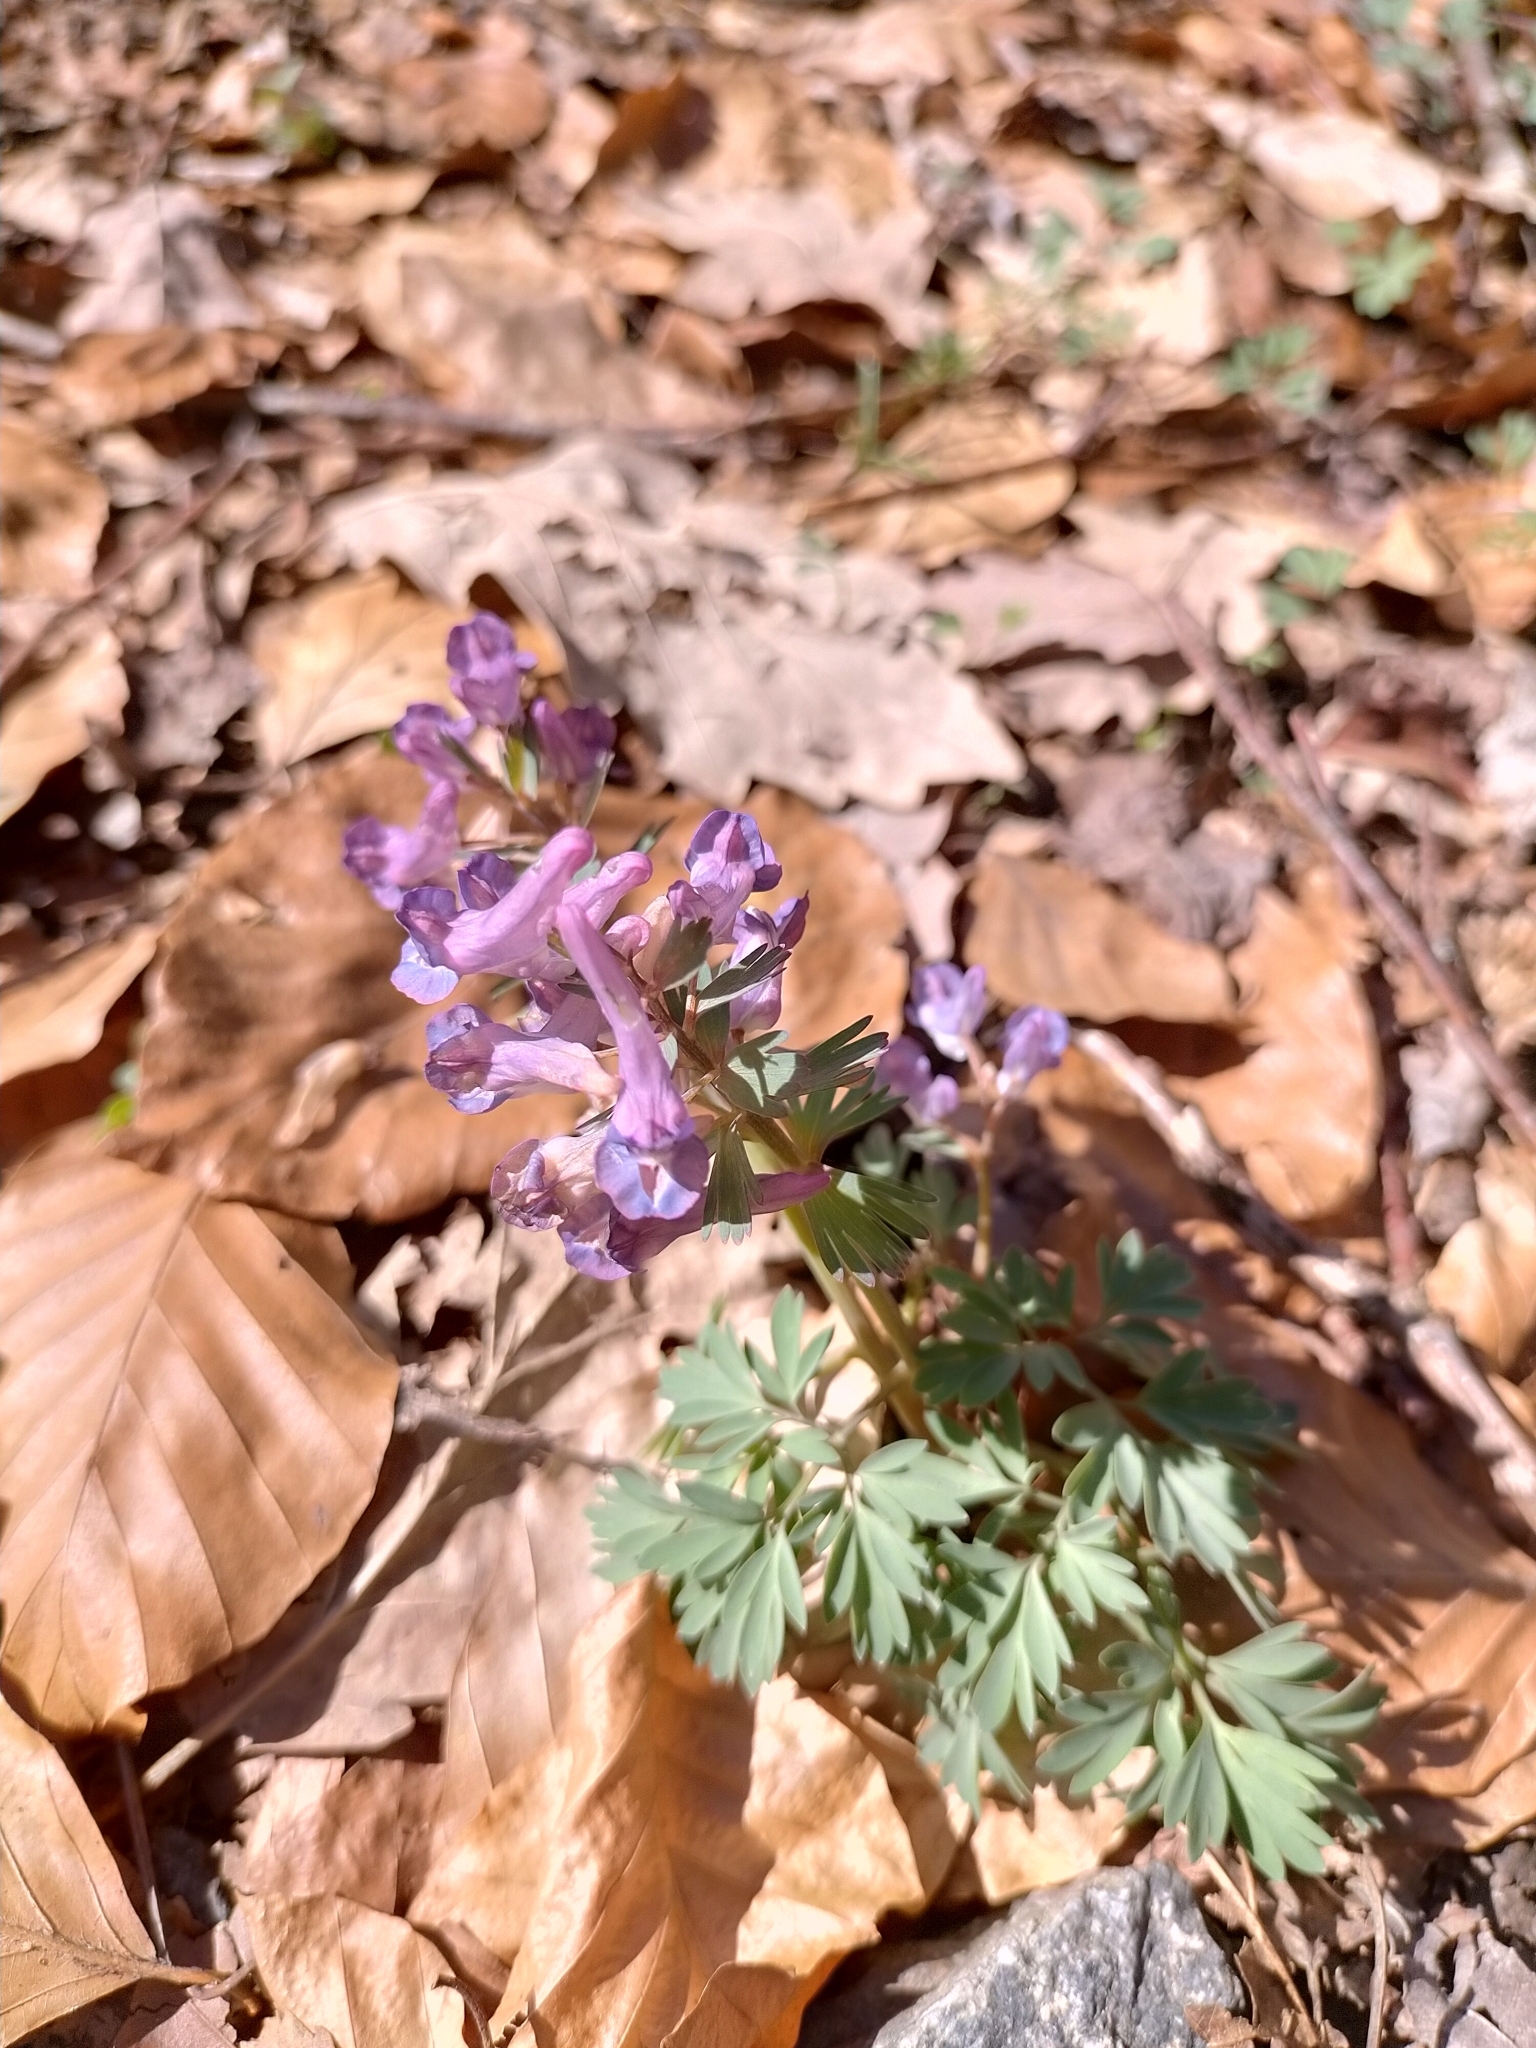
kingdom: Plantae
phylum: Tracheophyta
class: Magnoliopsida
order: Ranunculales
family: Papaveraceae
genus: Corydalis
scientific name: Corydalis solida
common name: Bird-in-a-bush
